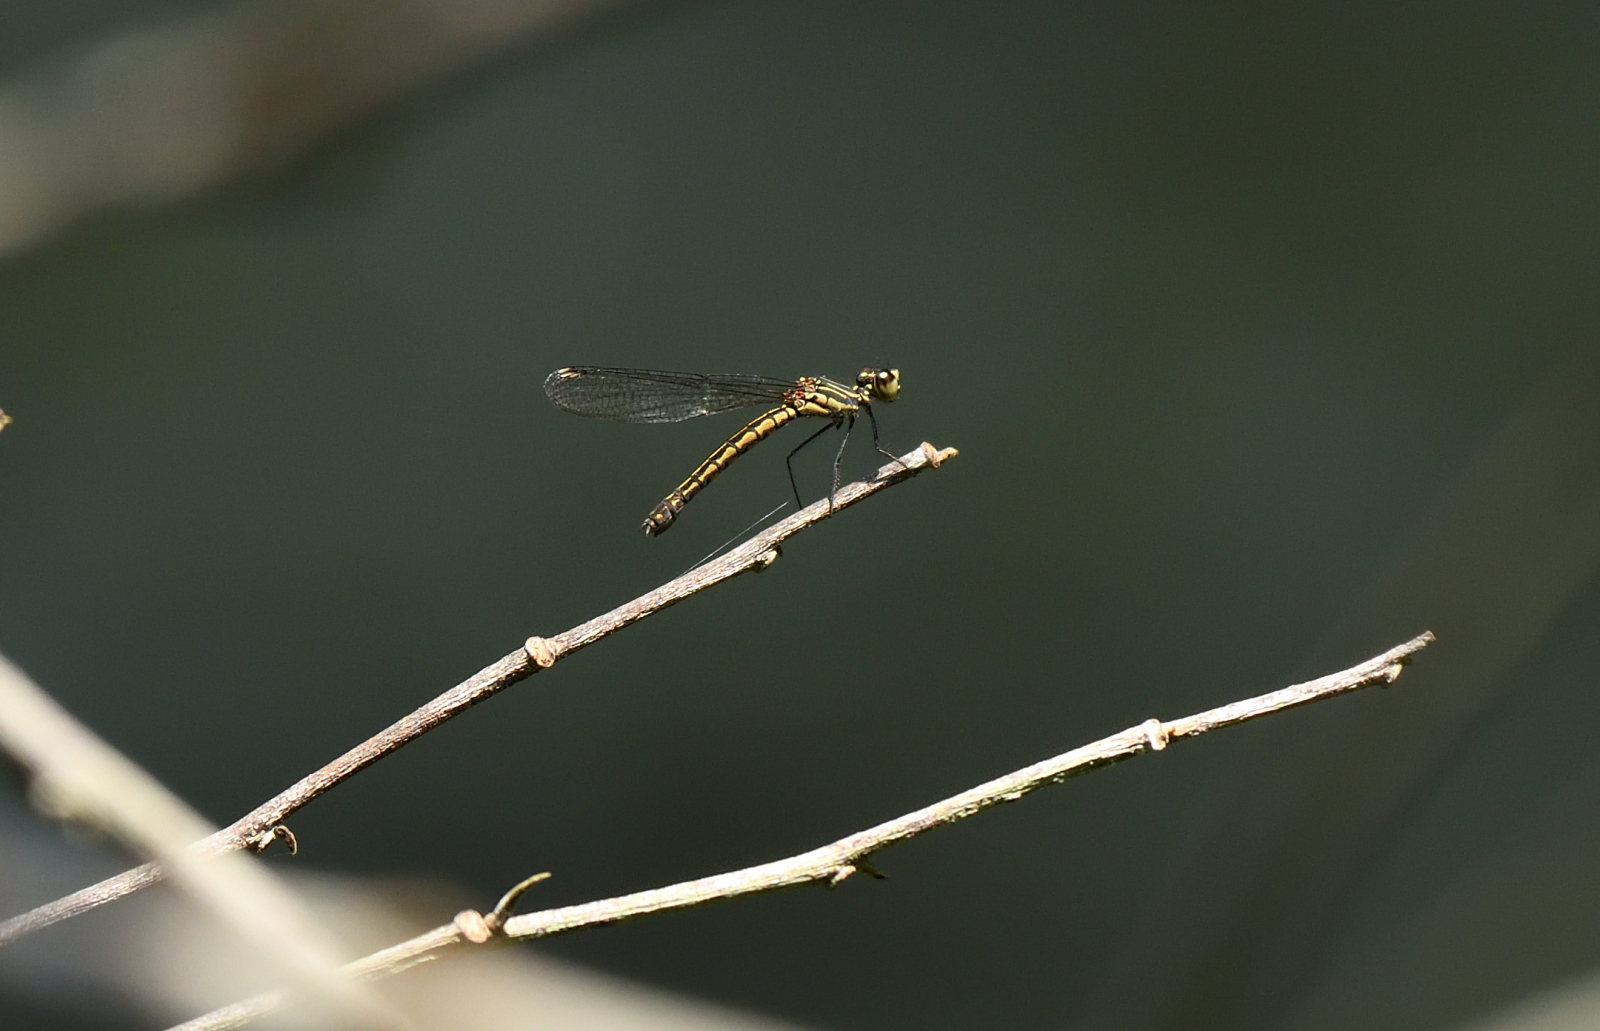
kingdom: Animalia
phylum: Arthropoda
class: Insecta
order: Odonata
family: Chlorocyphidae
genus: Libellago
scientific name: Libellago indica
